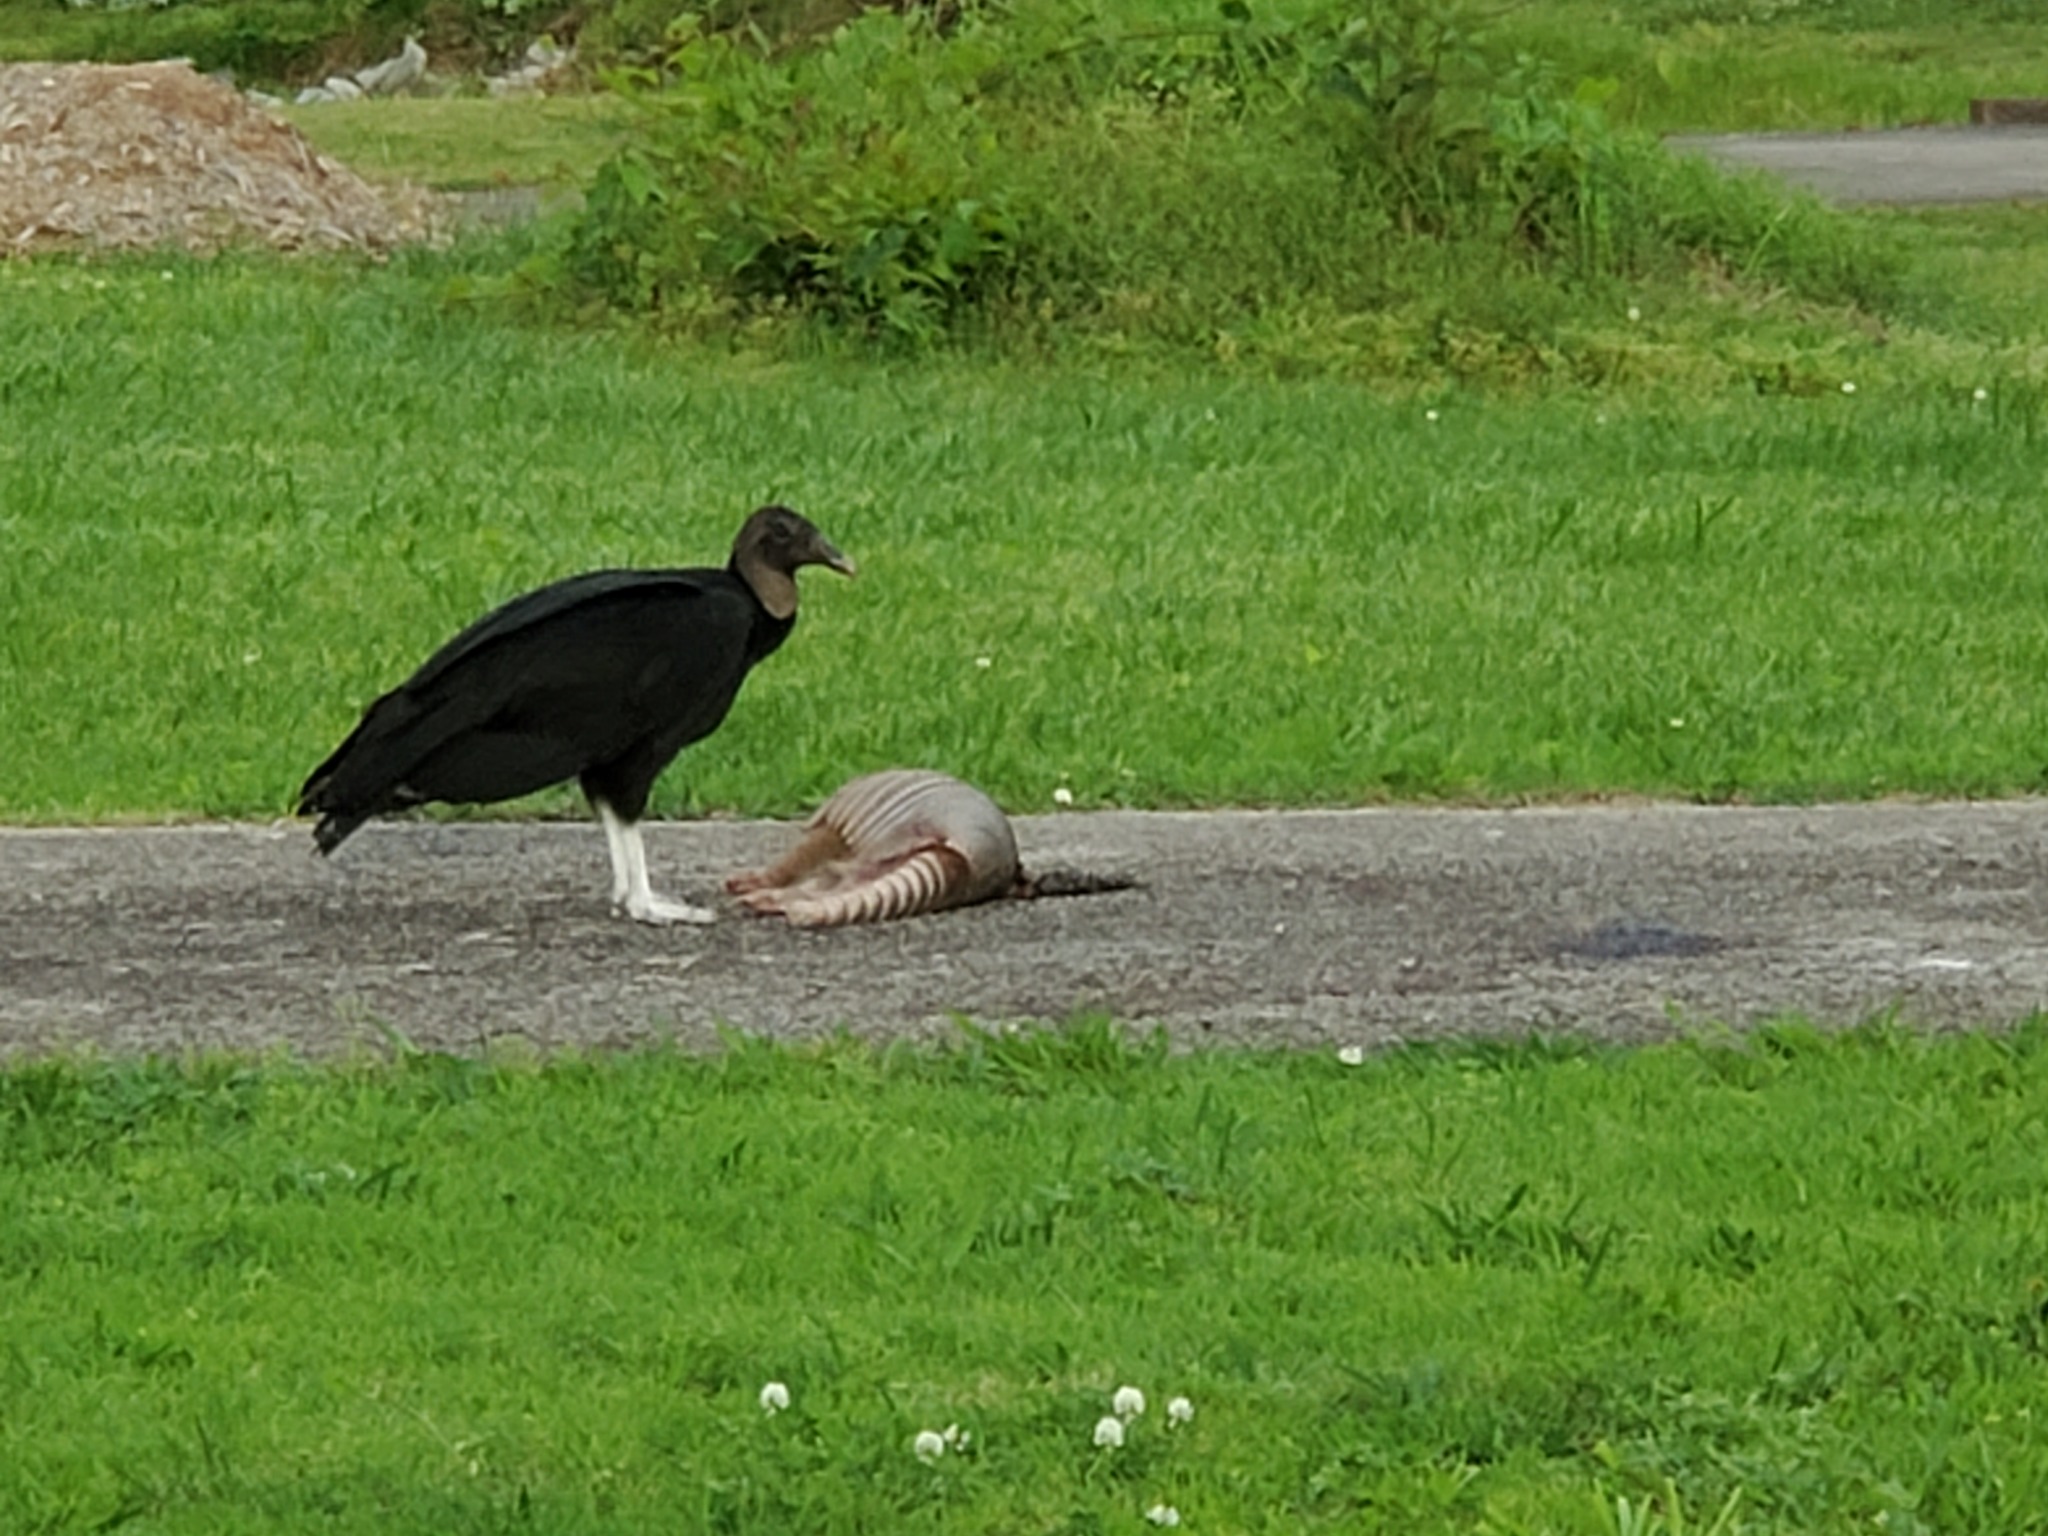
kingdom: Animalia
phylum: Chordata
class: Mammalia
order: Cingulata
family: Dasypodidae
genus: Dasypus
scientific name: Dasypus novemcinctus
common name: Nine-banded armadillo
